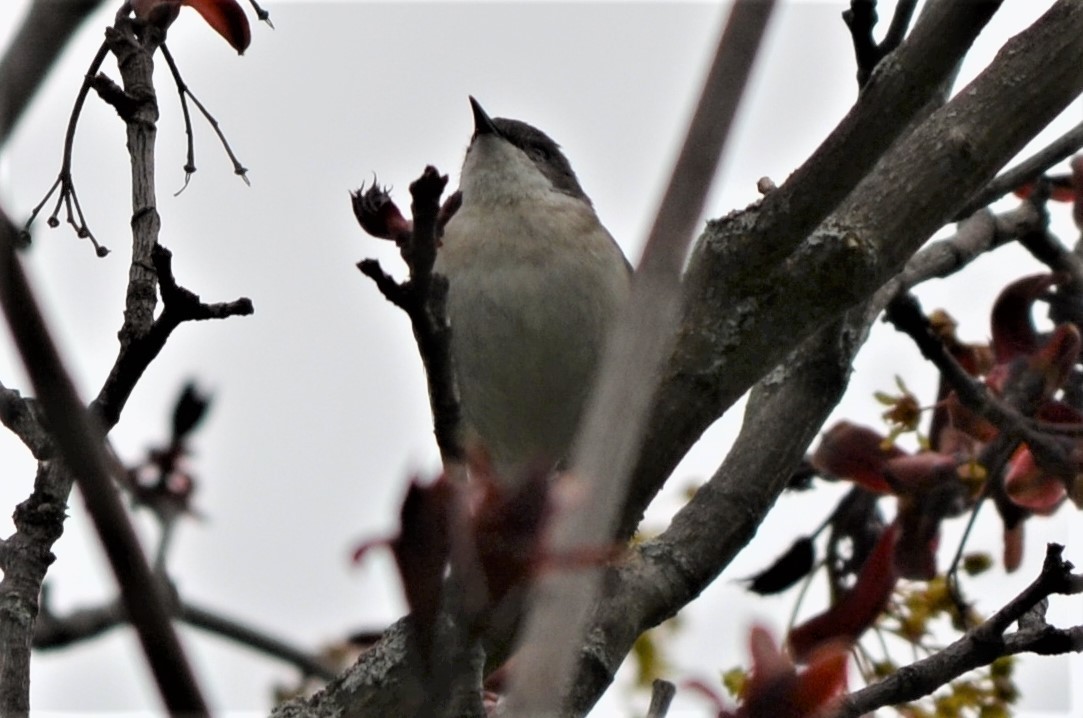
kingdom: Animalia
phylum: Chordata
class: Aves
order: Passeriformes
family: Sylviidae
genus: Sylvia
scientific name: Sylvia curruca
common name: Lesser whitethroat
